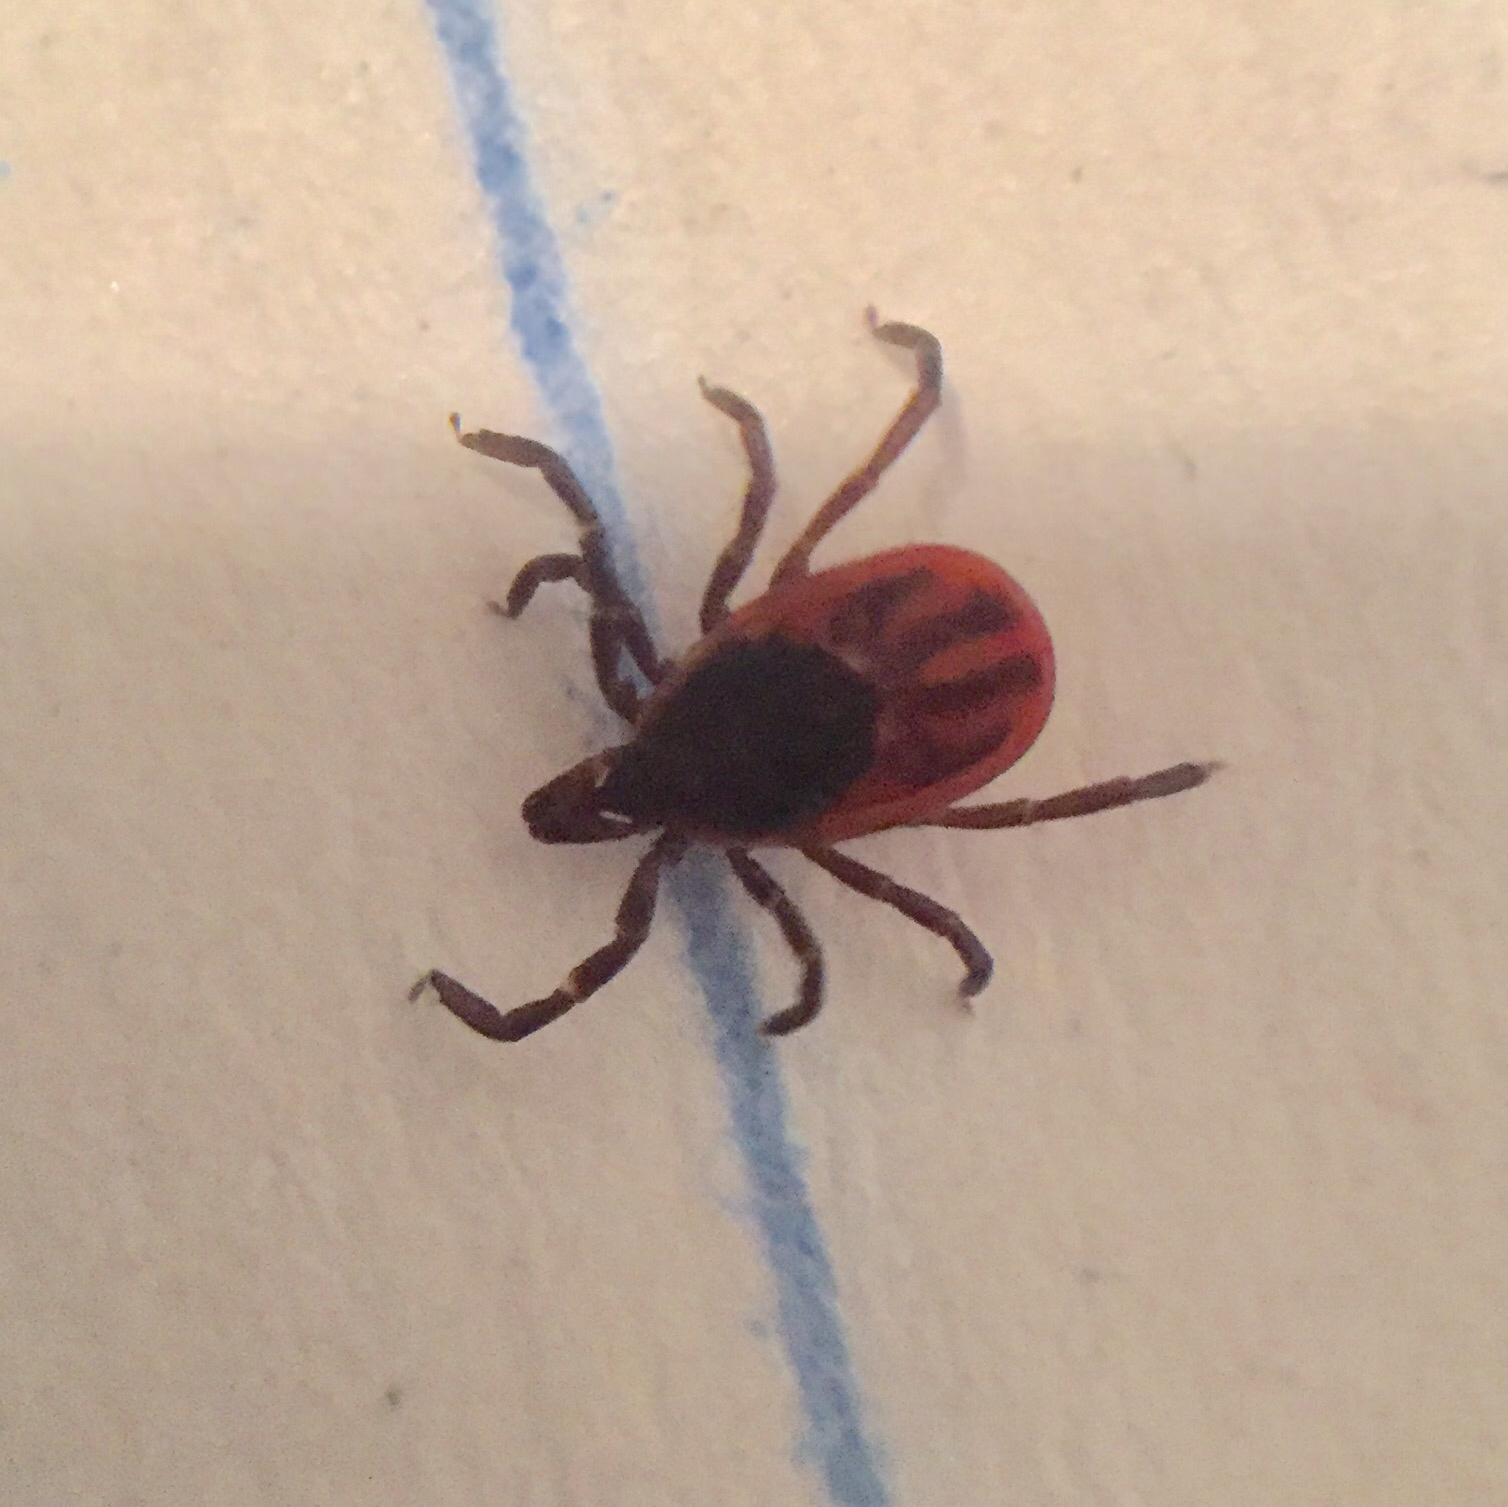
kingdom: Animalia
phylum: Arthropoda
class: Arachnida
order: Ixodida
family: Ixodidae
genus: Ixodes
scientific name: Ixodes scapularis
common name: Black legged tick
